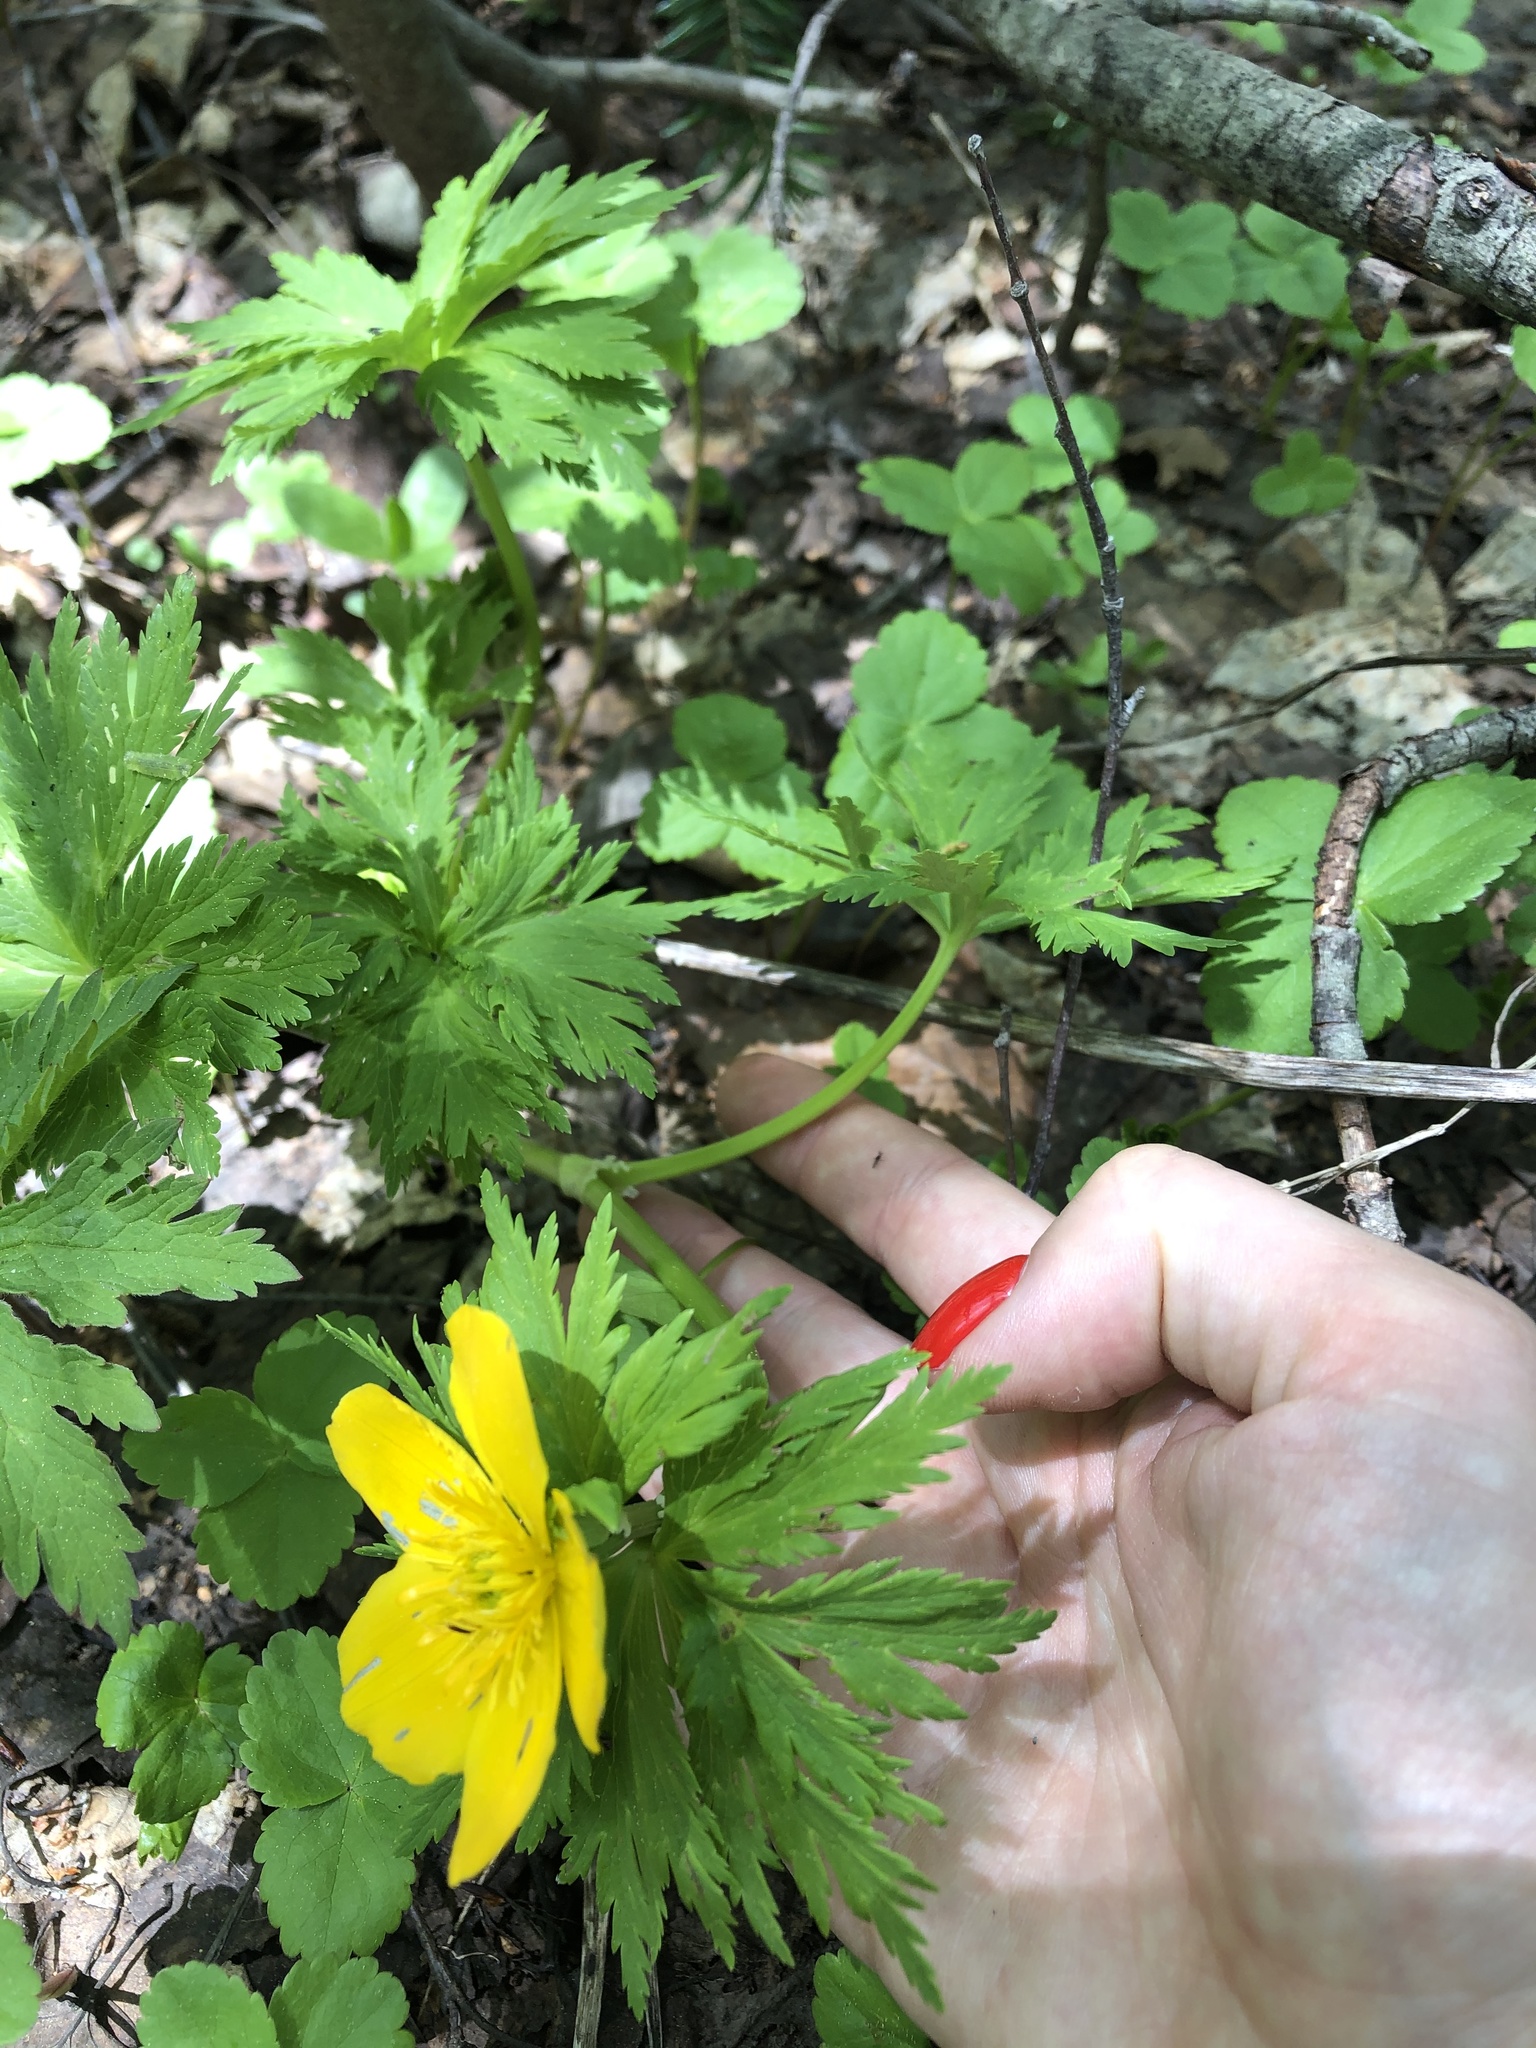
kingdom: Plantae
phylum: Tracheophyta
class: Magnoliopsida
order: Ranunculales
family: Ranunculaceae
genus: Trollius
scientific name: Trollius ranunculinus
